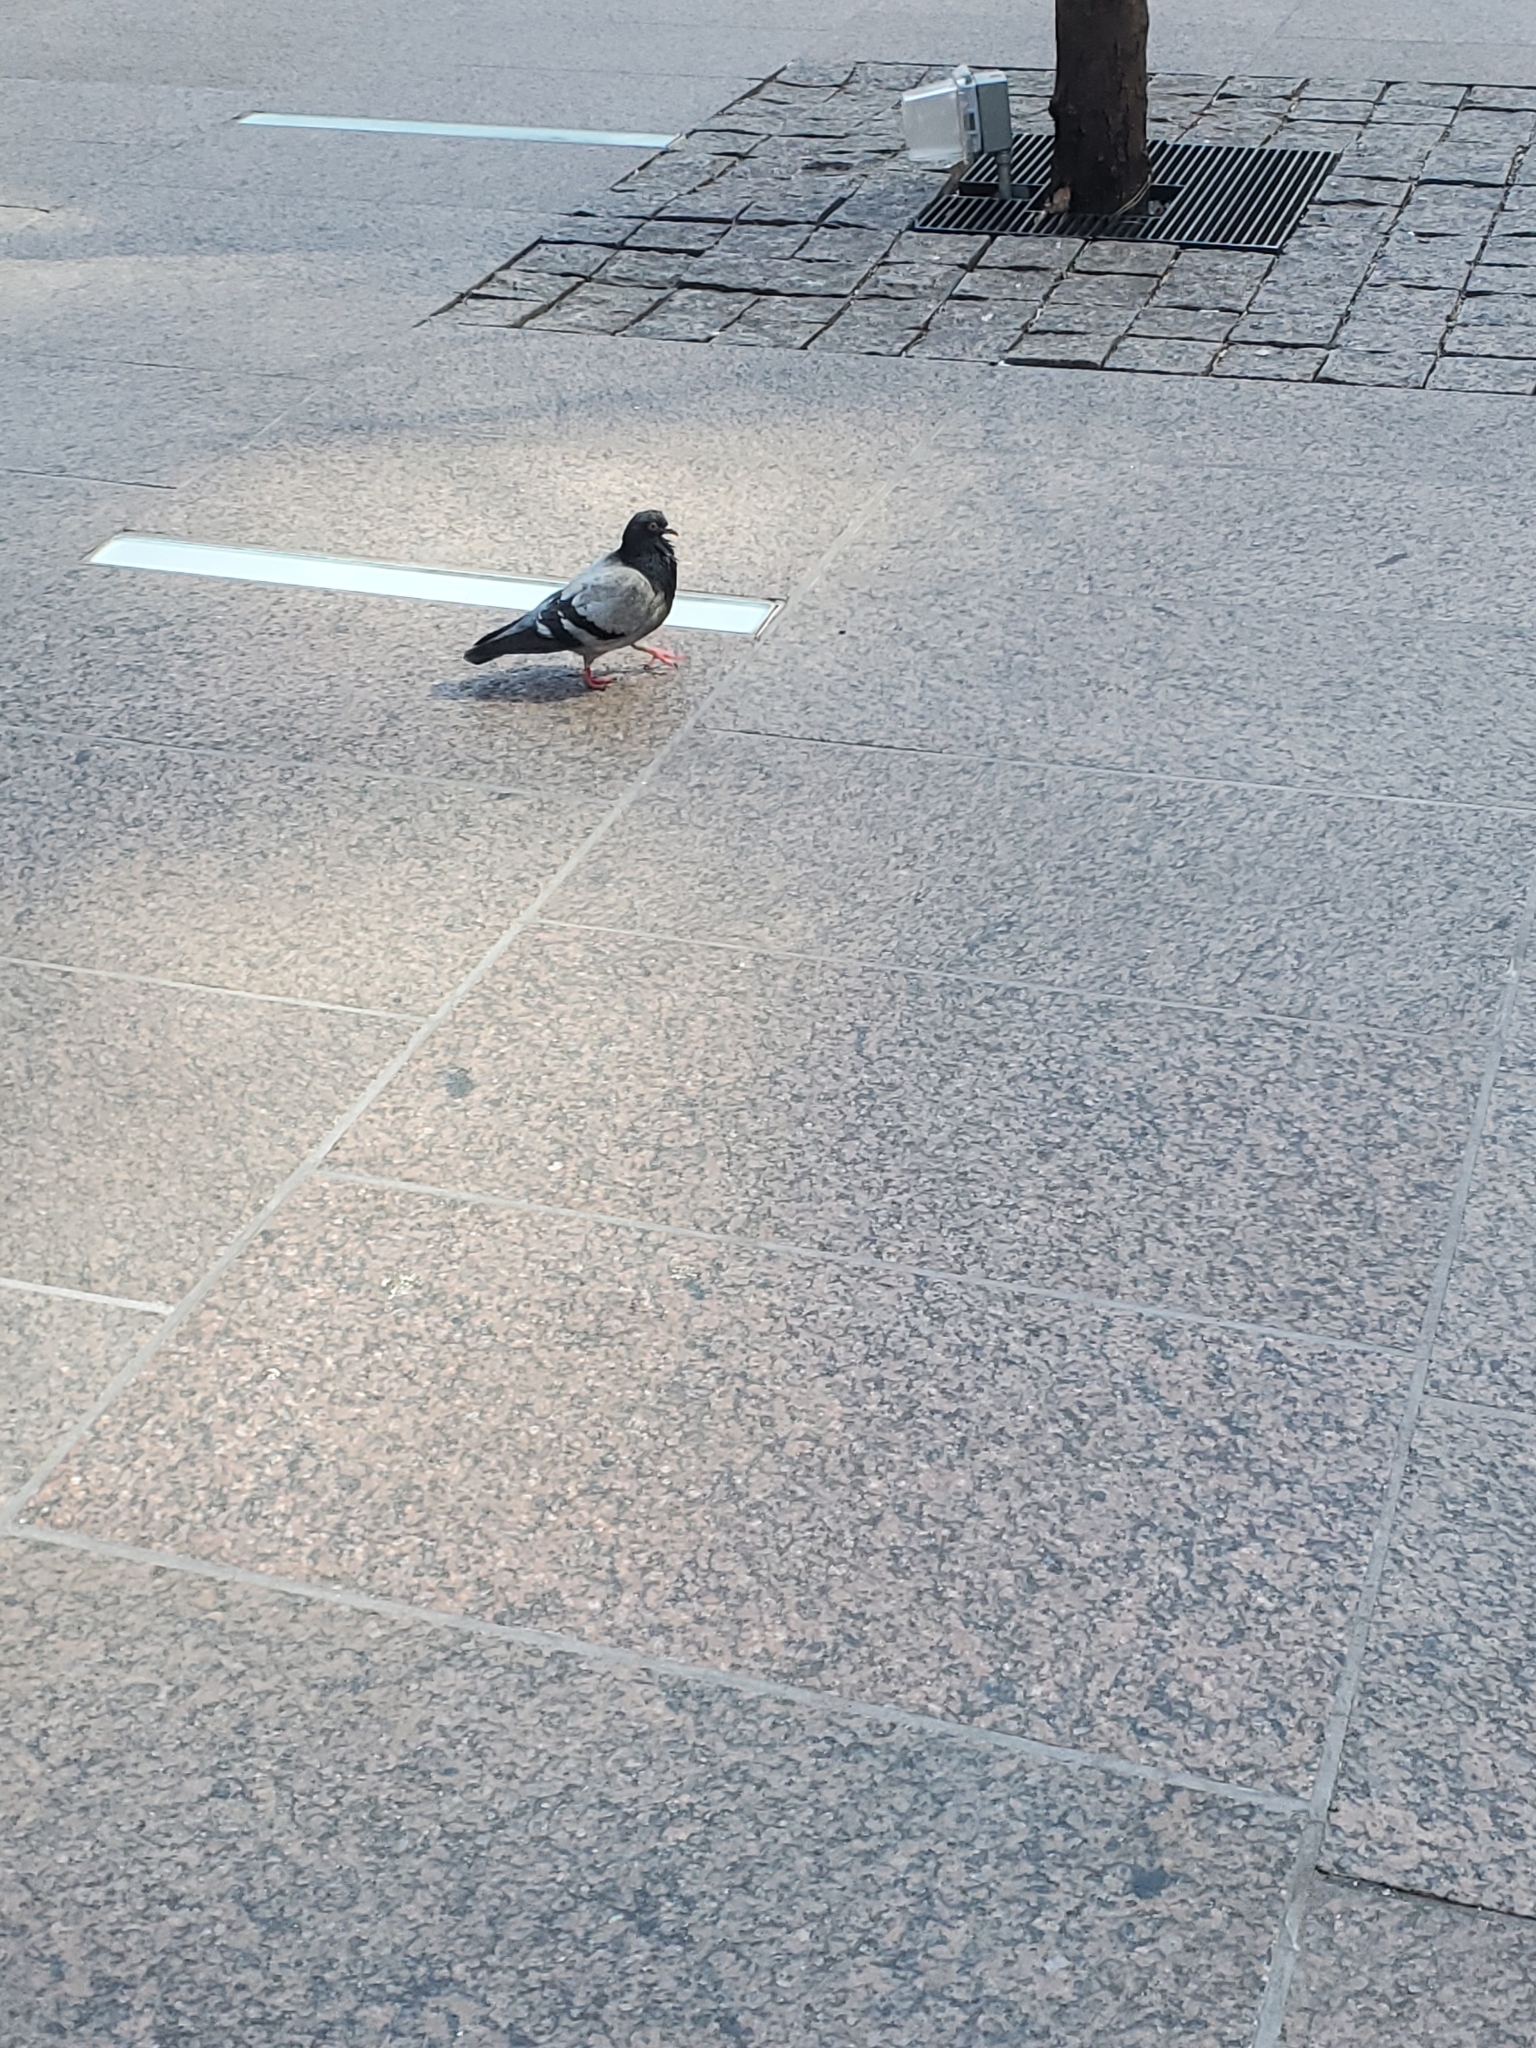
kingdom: Animalia
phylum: Chordata
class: Aves
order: Columbiformes
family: Columbidae
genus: Columba
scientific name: Columba livia
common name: Rock pigeon
